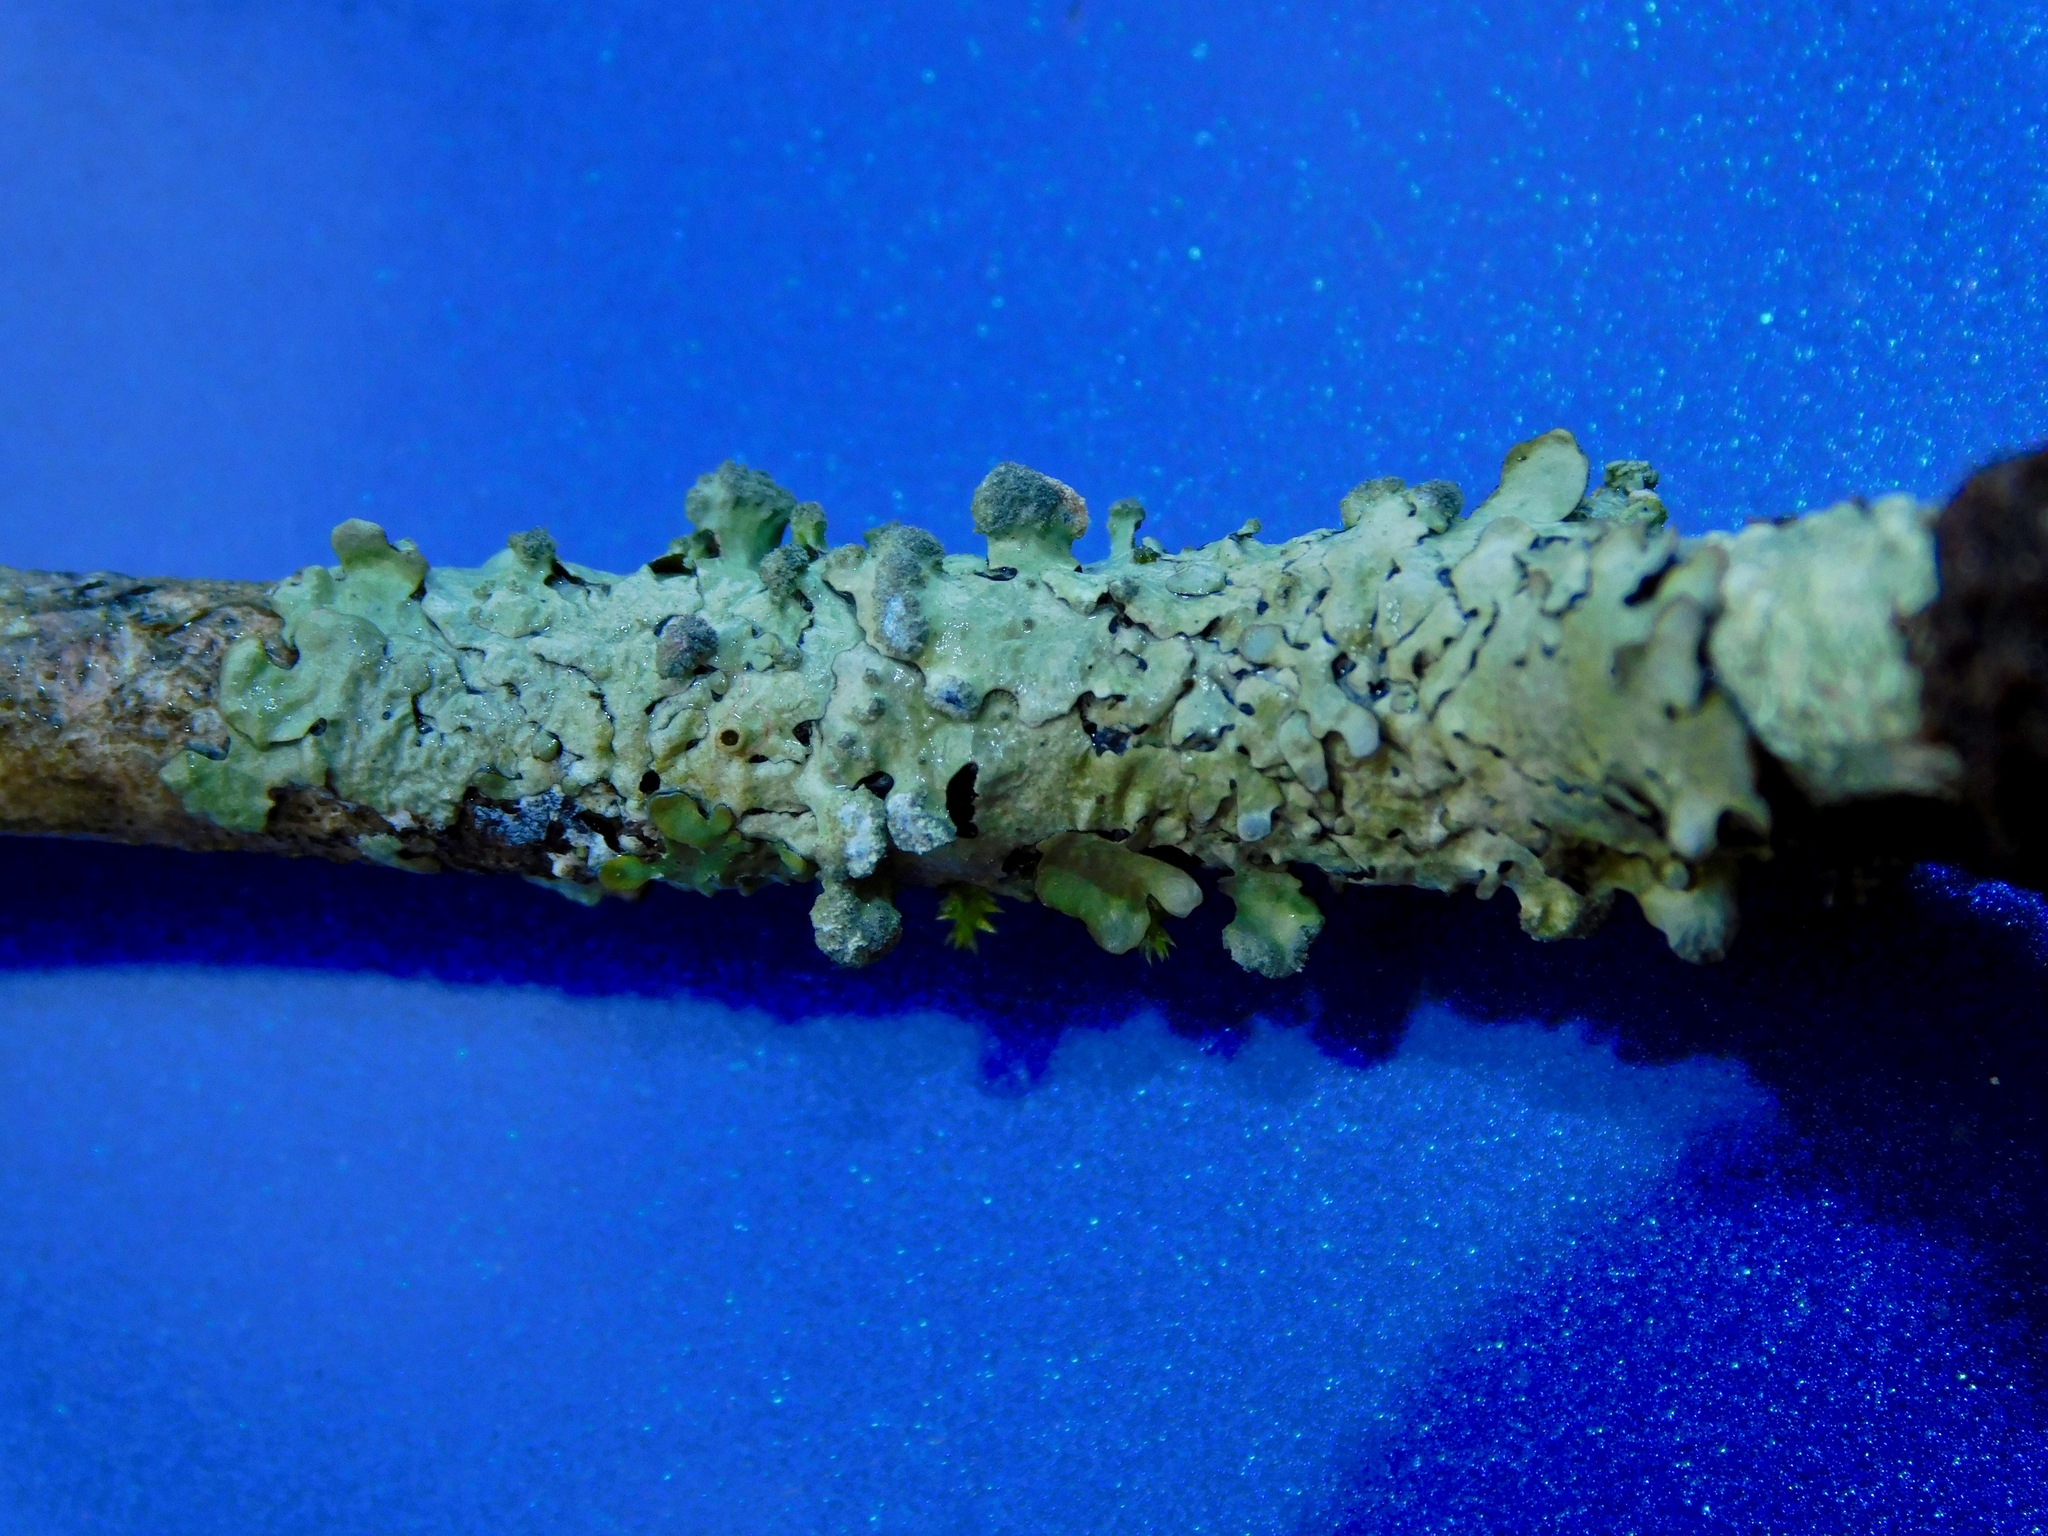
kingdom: Fungi
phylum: Ascomycota
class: Lecanoromycetes
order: Lecanorales
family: Parmeliaceae
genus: Myelochroa
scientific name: Myelochroa metarevoluta
